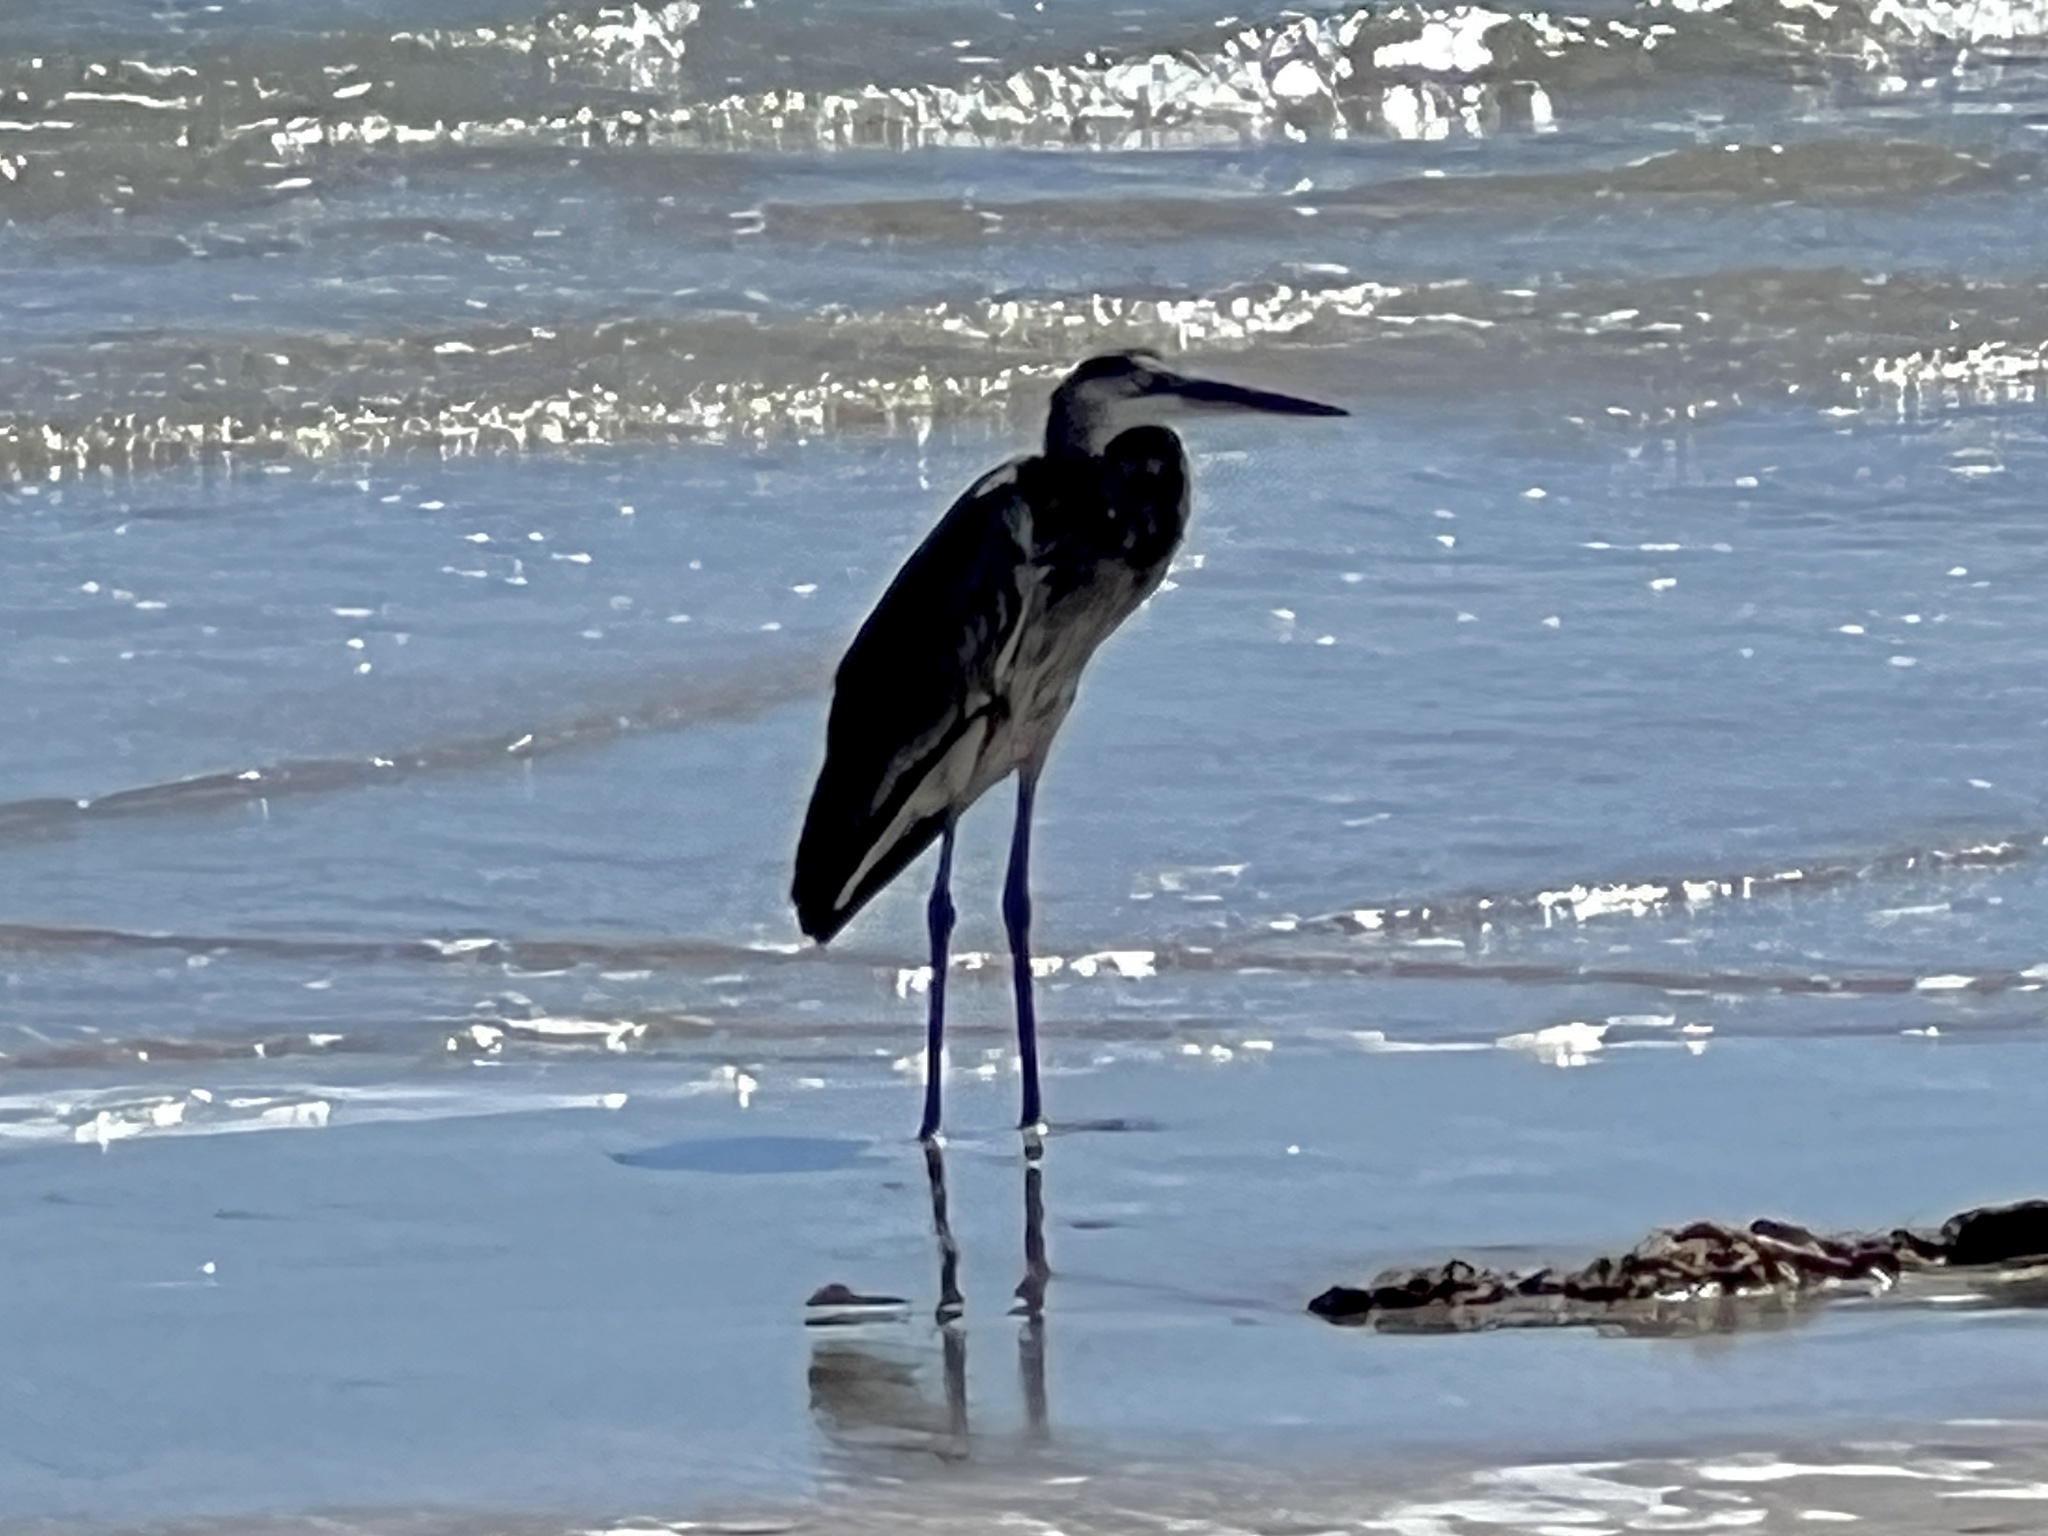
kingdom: Animalia
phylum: Chordata
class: Aves
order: Pelecaniformes
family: Ardeidae
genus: Ardea
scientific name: Ardea herodias
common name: Great blue heron
